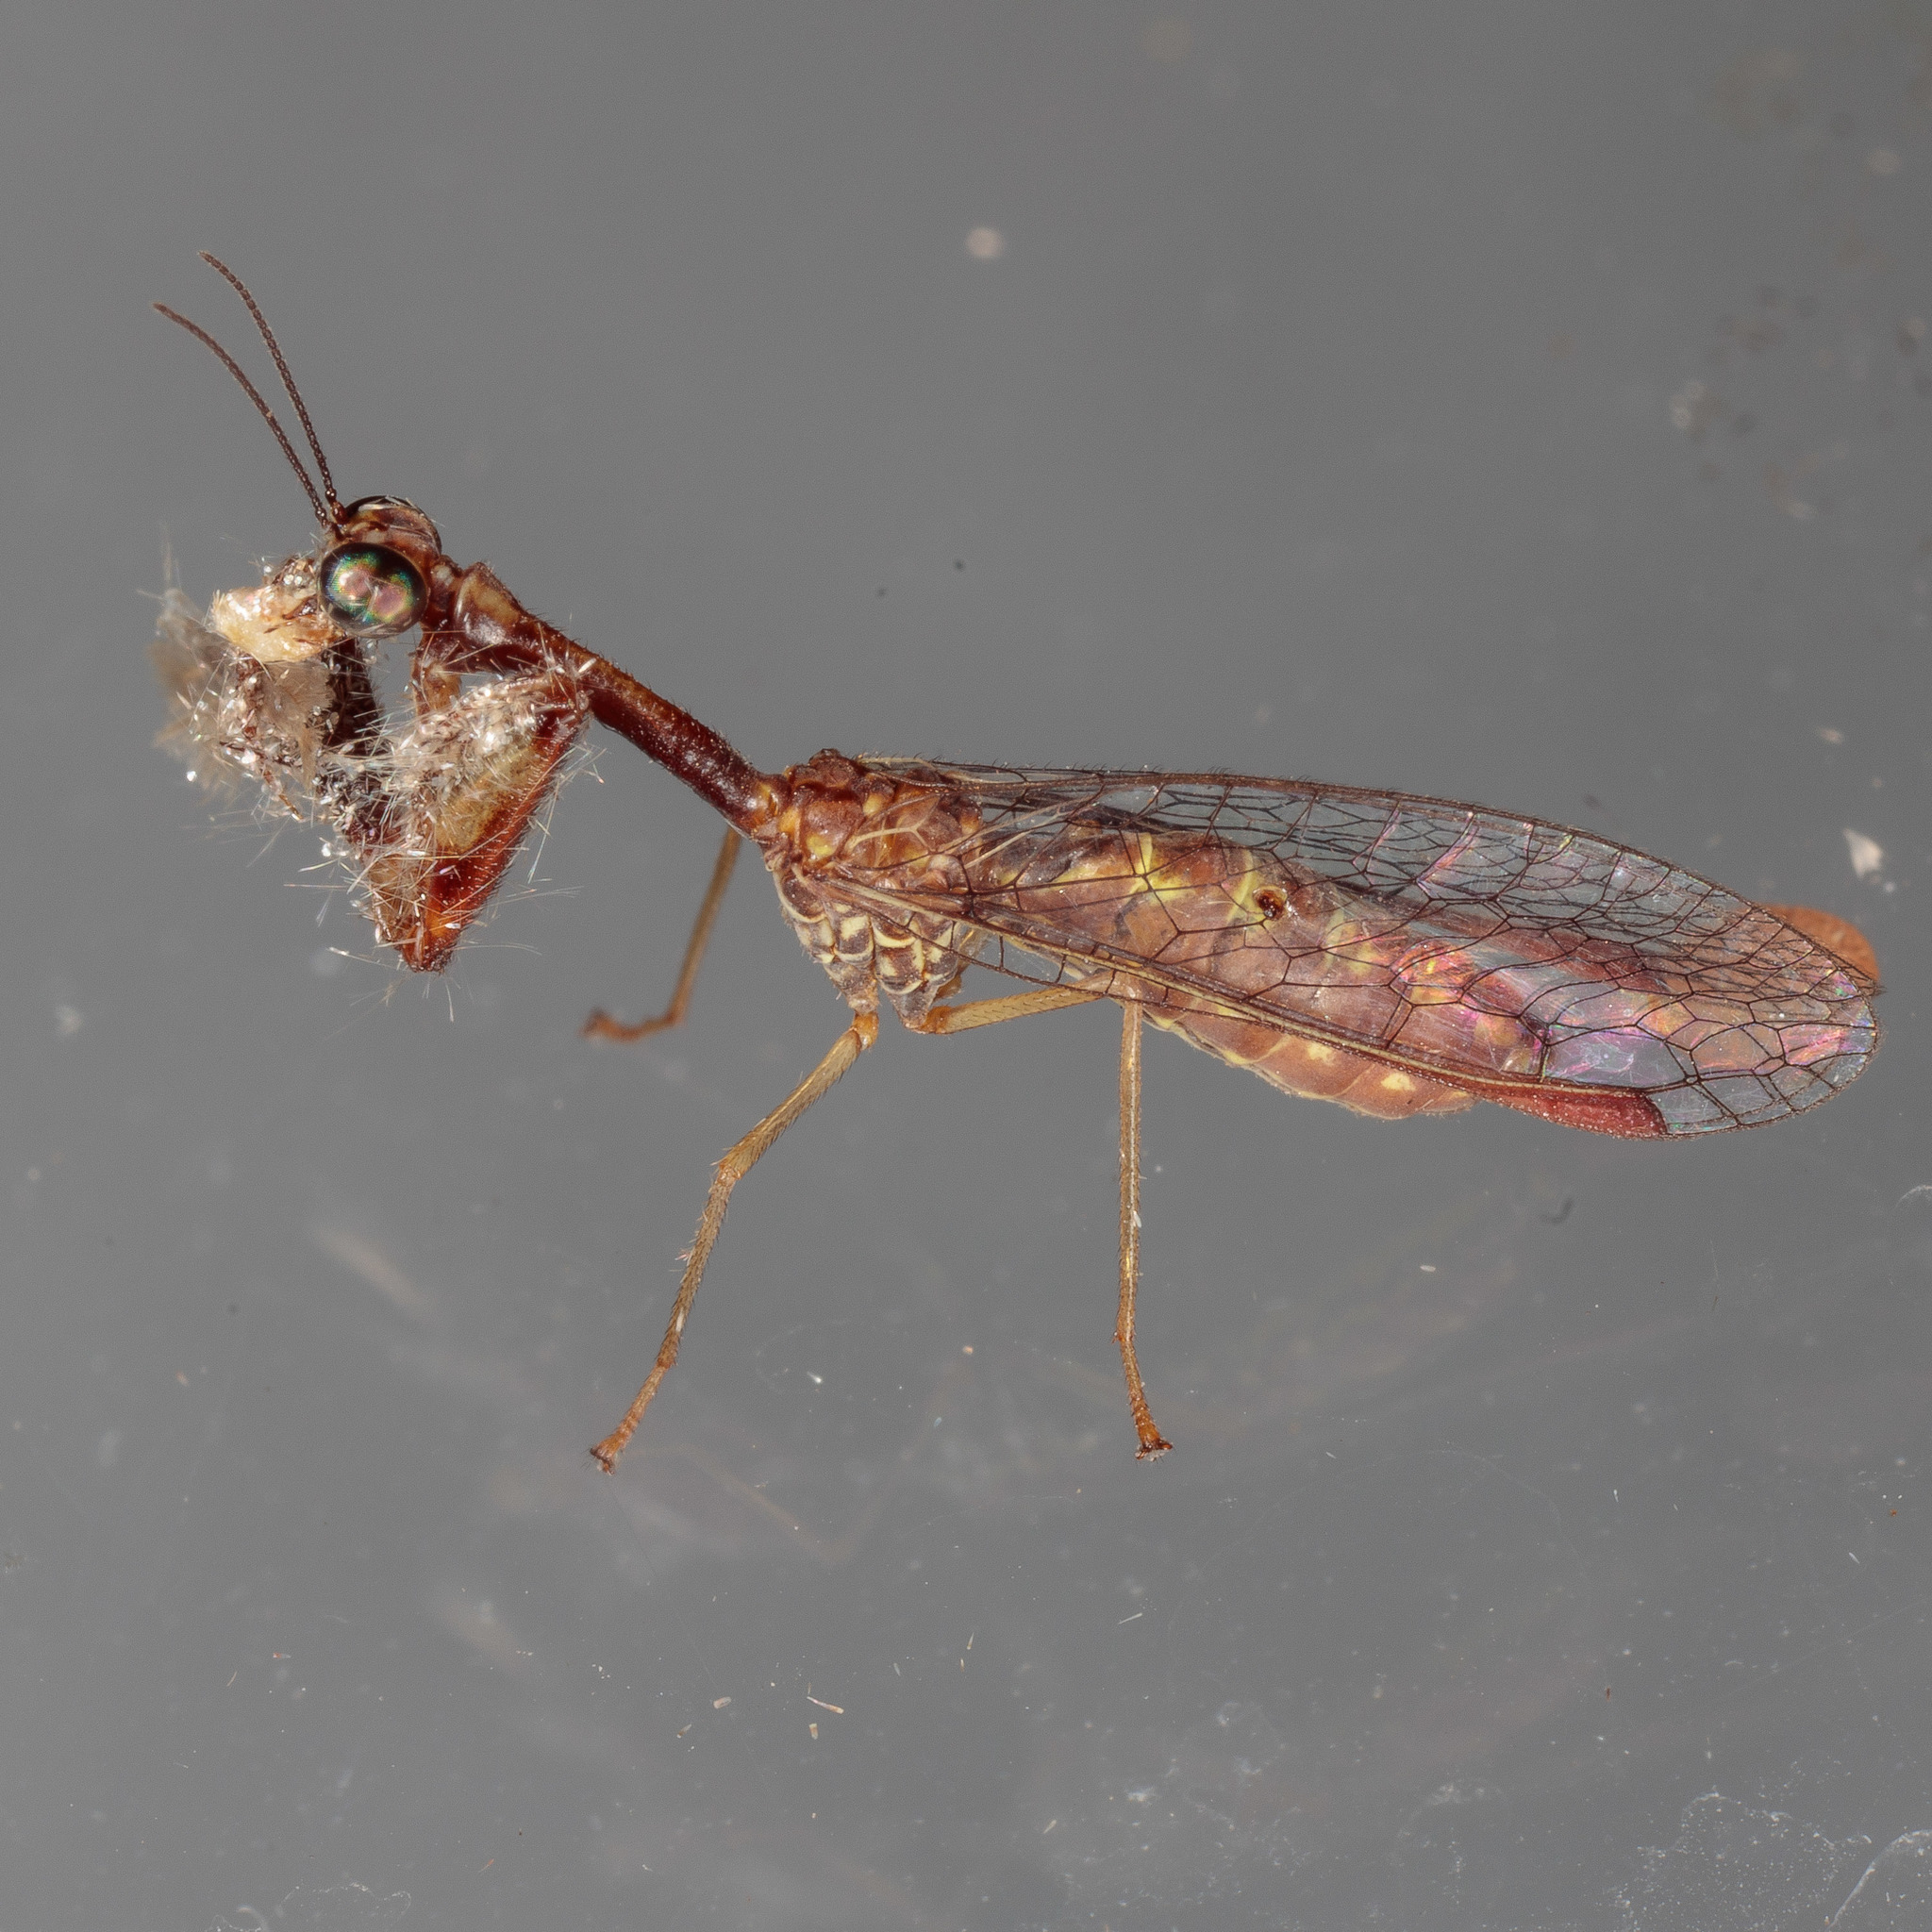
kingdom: Animalia
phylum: Arthropoda
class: Insecta
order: Neuroptera
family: Mantispidae
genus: Leptomantispa
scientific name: Leptomantispa pulchella
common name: Stevens's mantidfly
